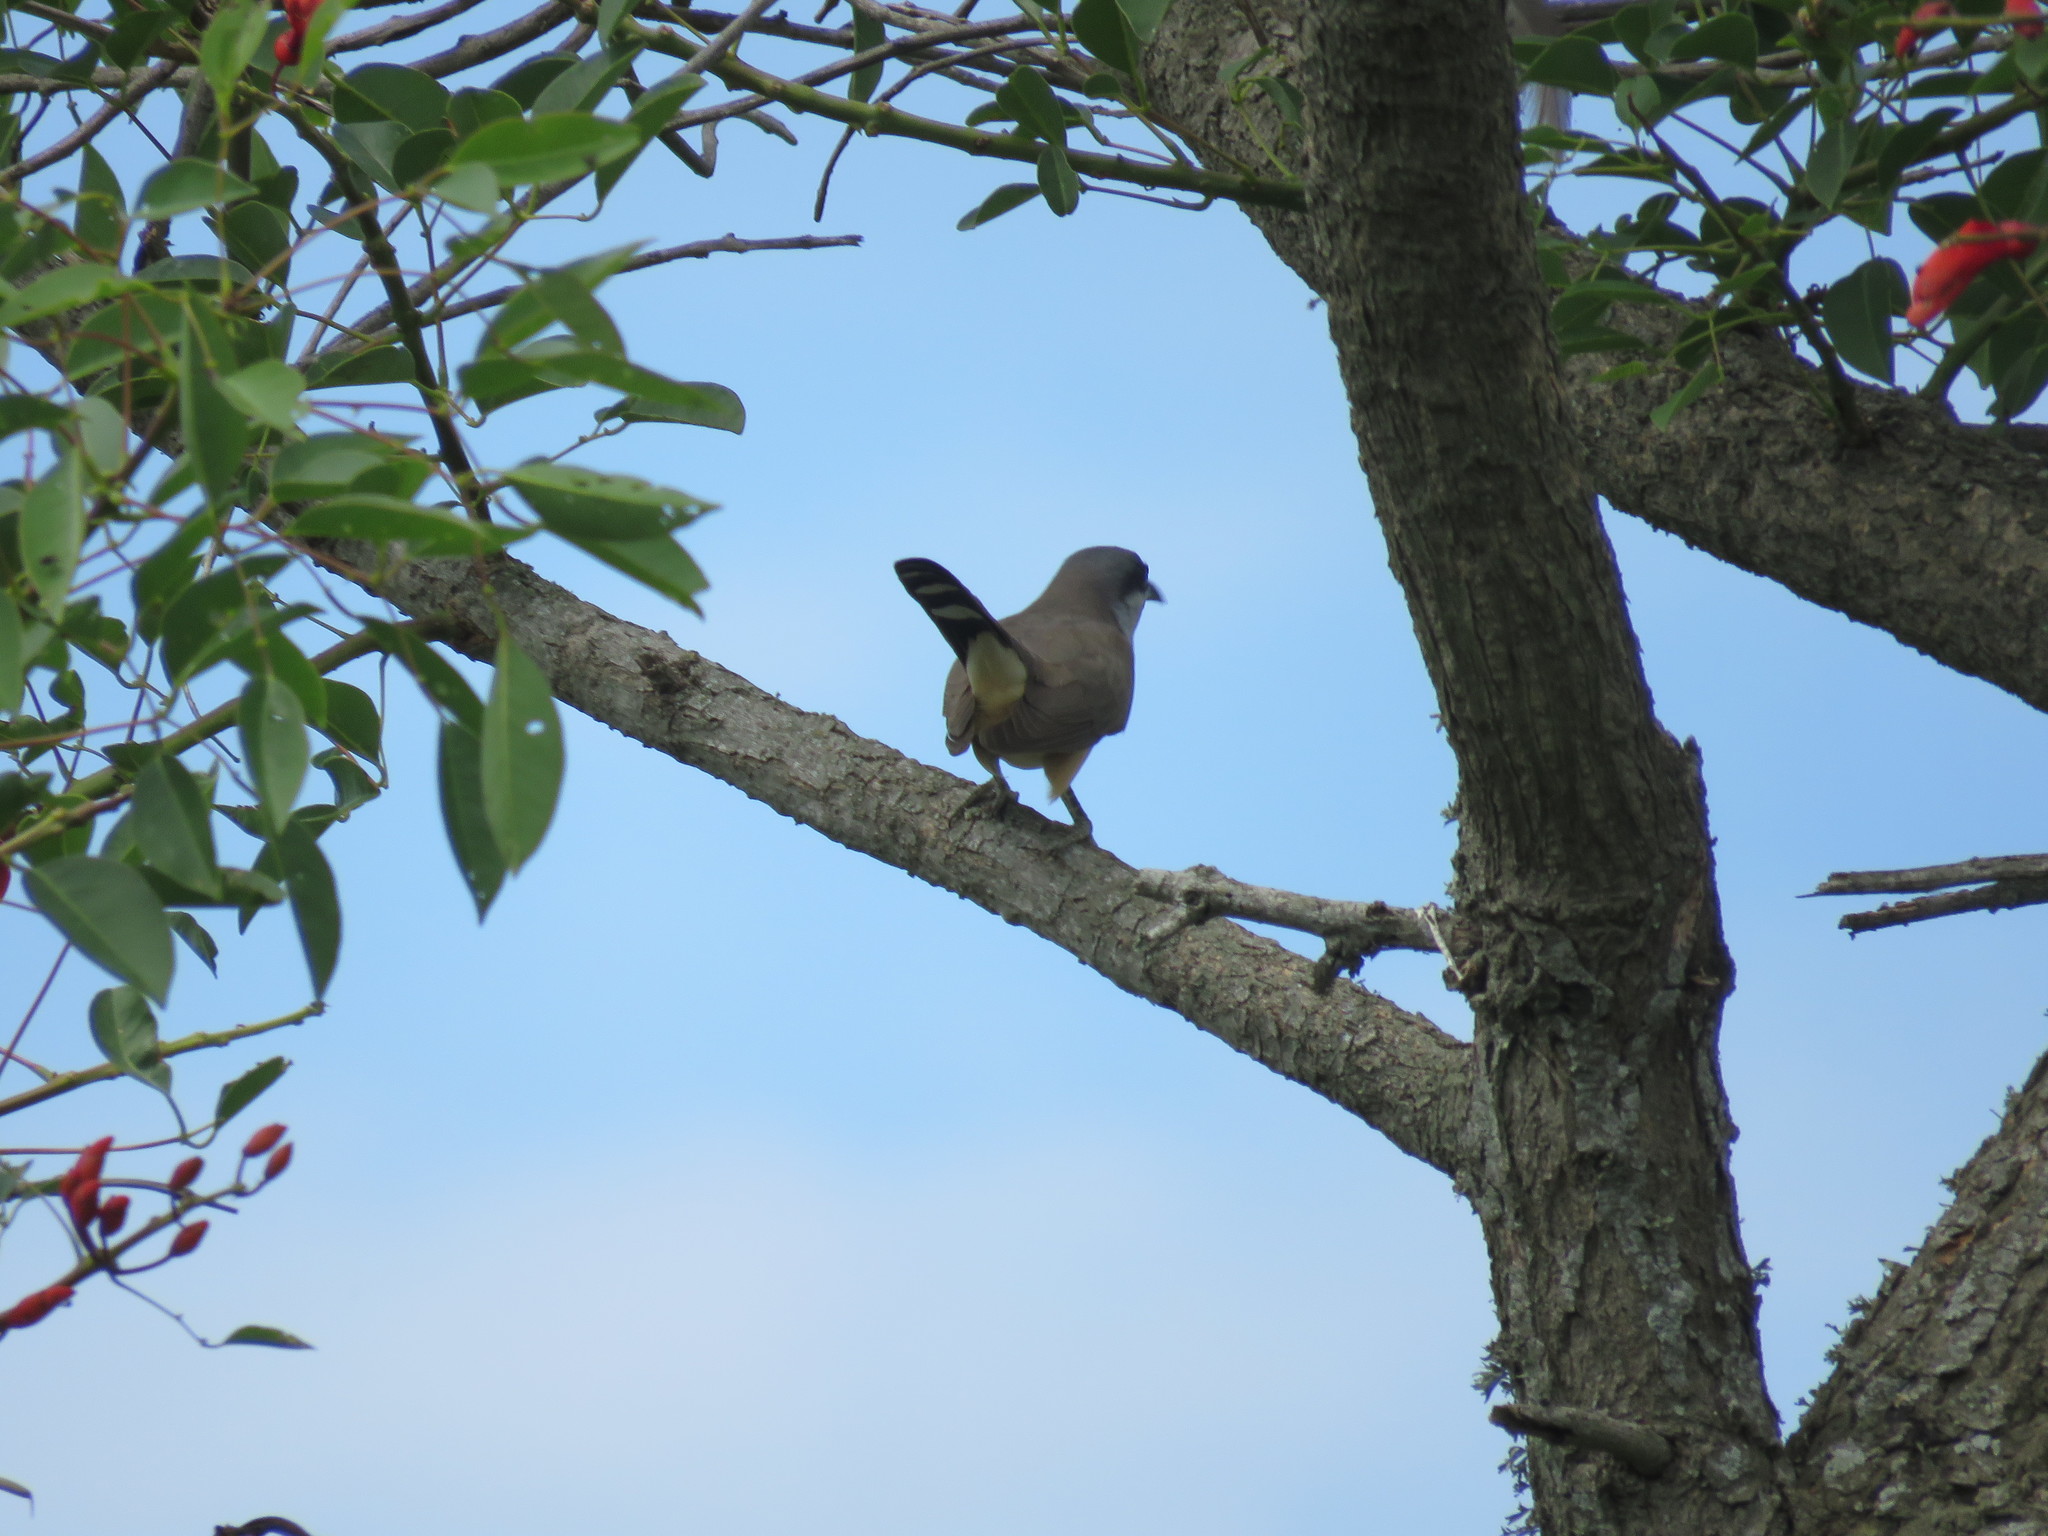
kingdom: Animalia
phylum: Chordata
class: Aves
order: Cuculiformes
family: Cuculidae
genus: Coccyzus
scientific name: Coccyzus melacoryphus
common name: Dark-billed cuckoo
